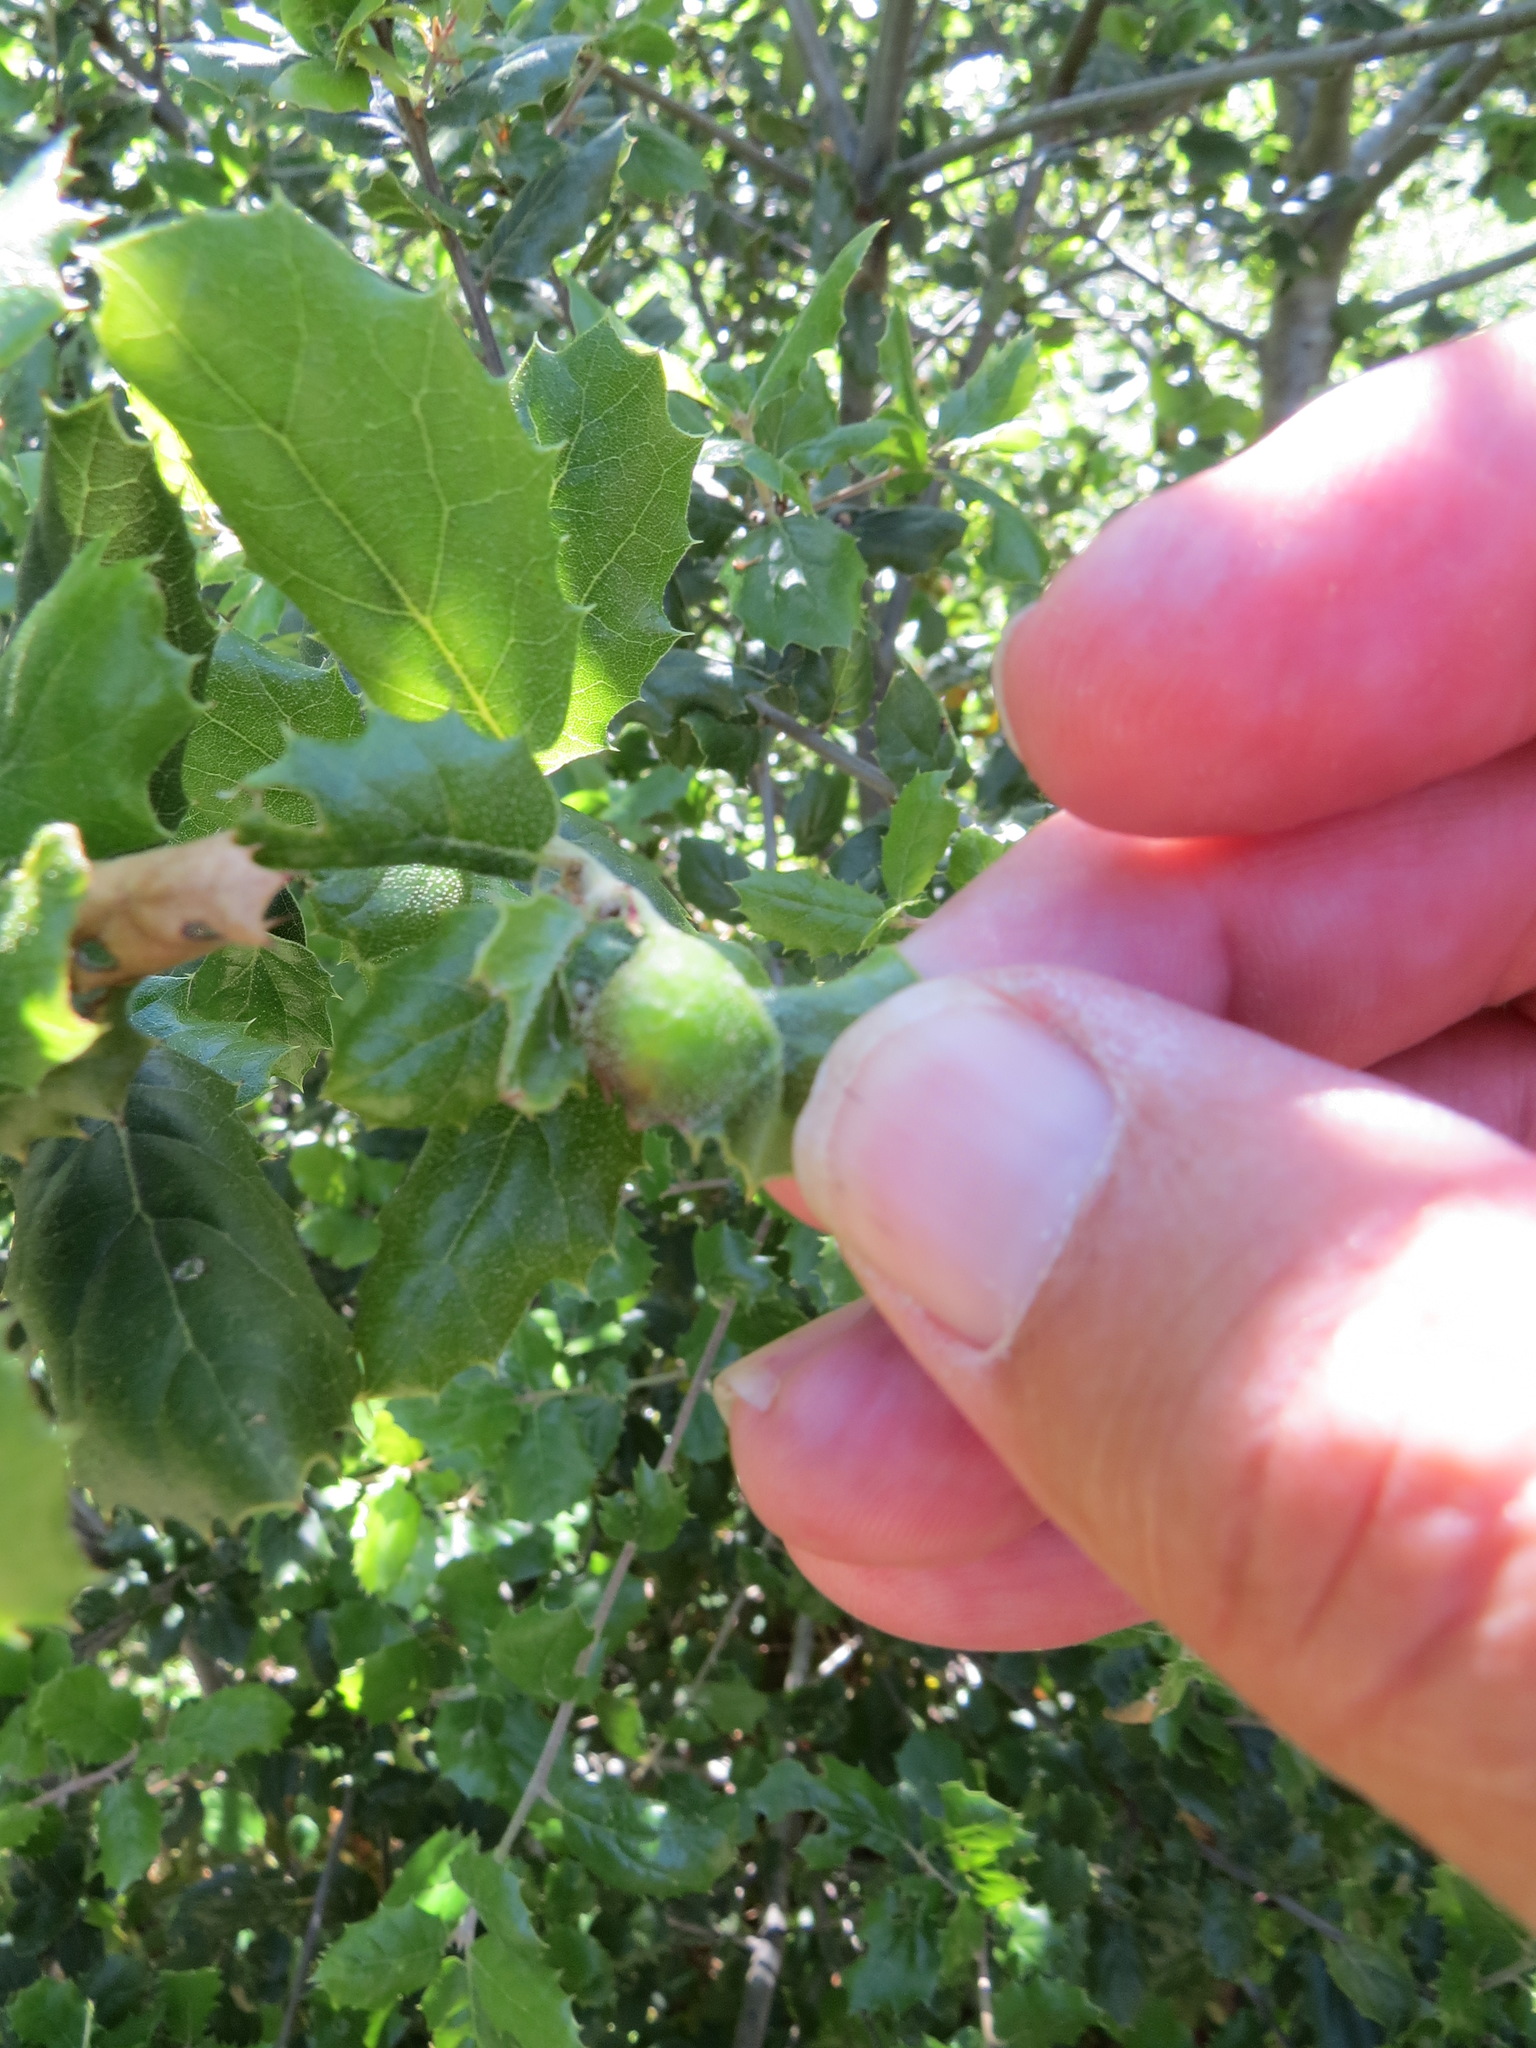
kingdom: Animalia
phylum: Arthropoda
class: Insecta
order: Hymenoptera
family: Cynipidae
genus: Callirhytis
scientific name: Callirhytis
